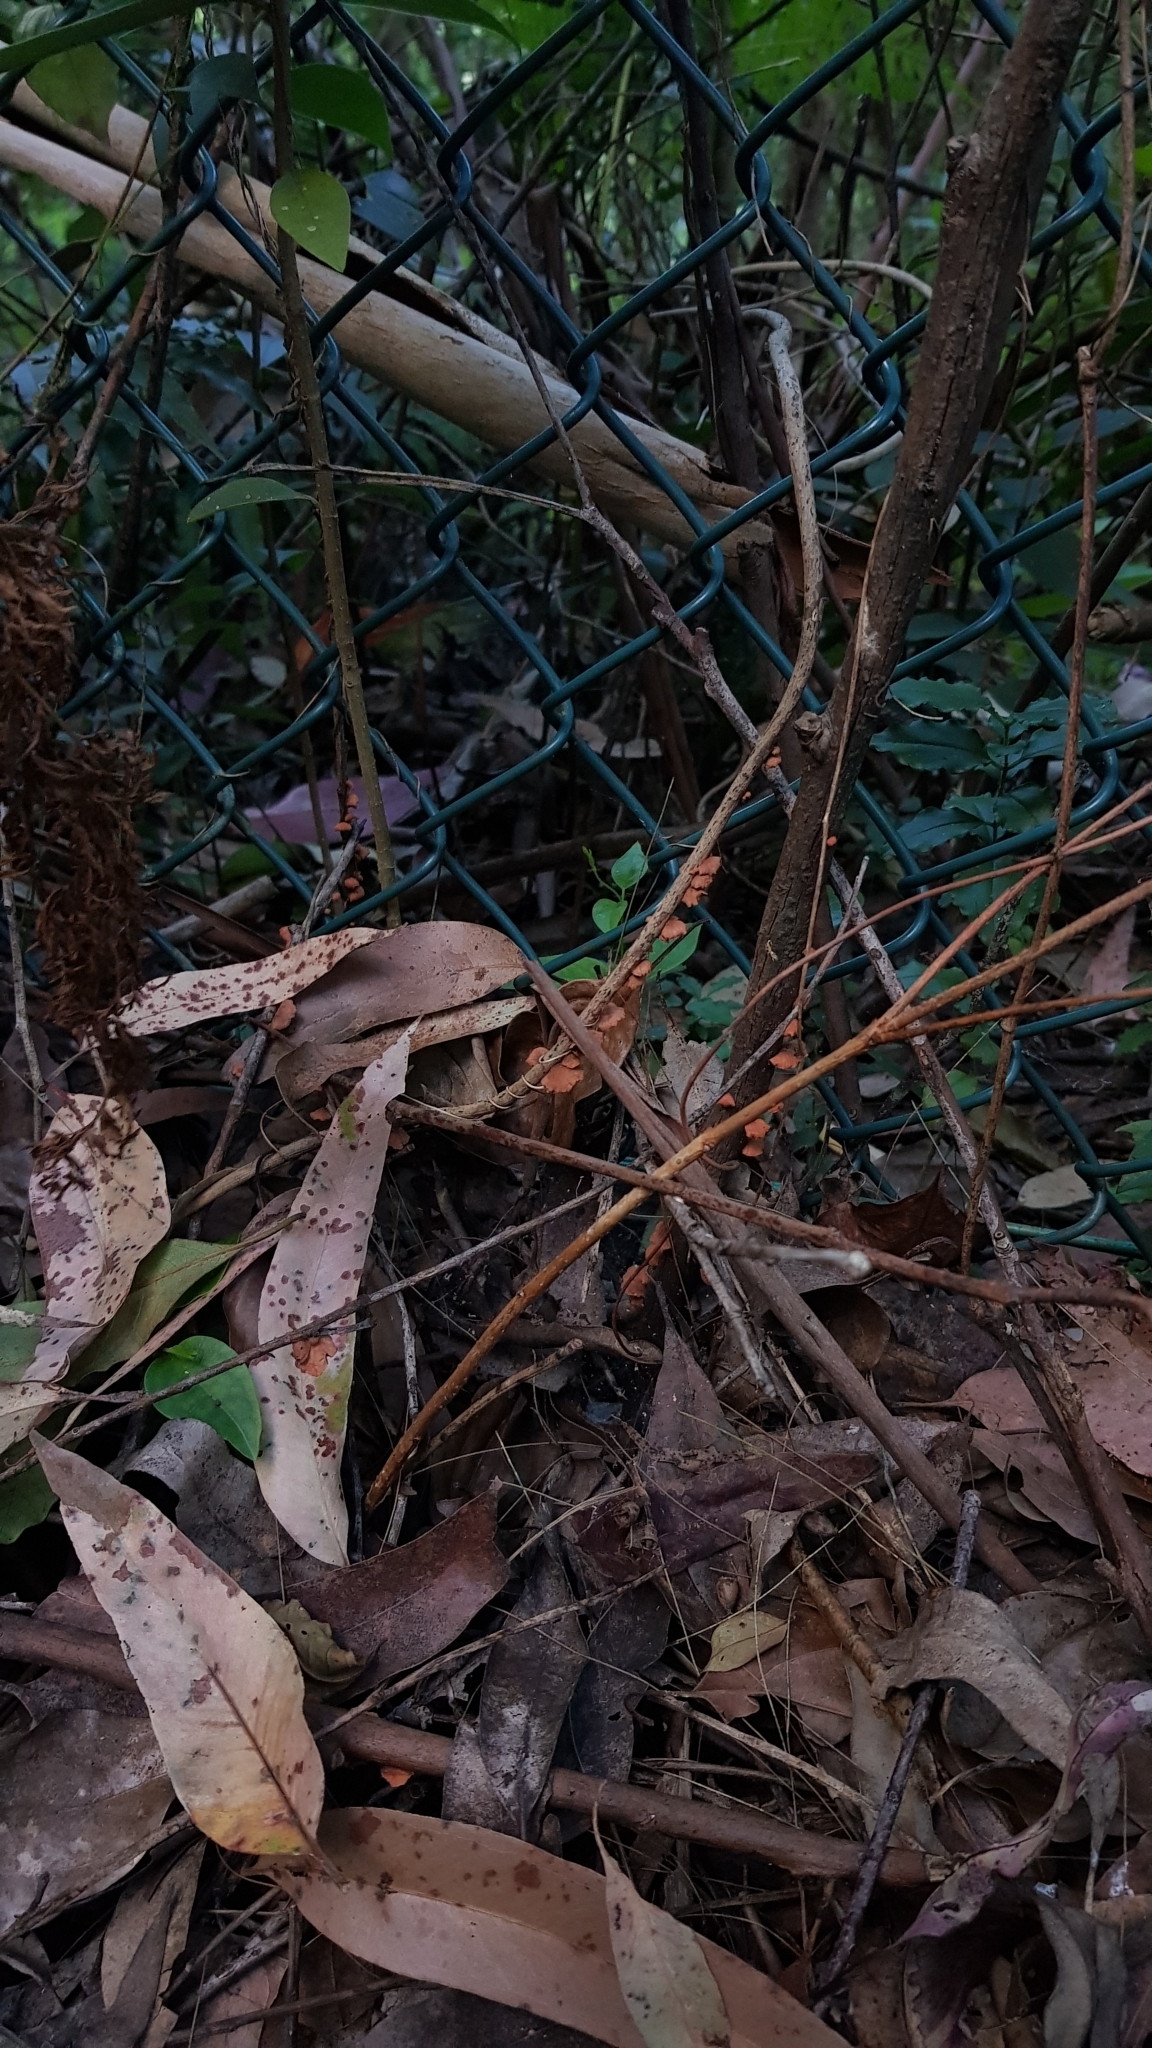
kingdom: Fungi
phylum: Basidiomycota
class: Agaricomycetes
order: Agaricales
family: Omphalotaceae
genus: Anthracophyllum
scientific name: Anthracophyllum archeri
